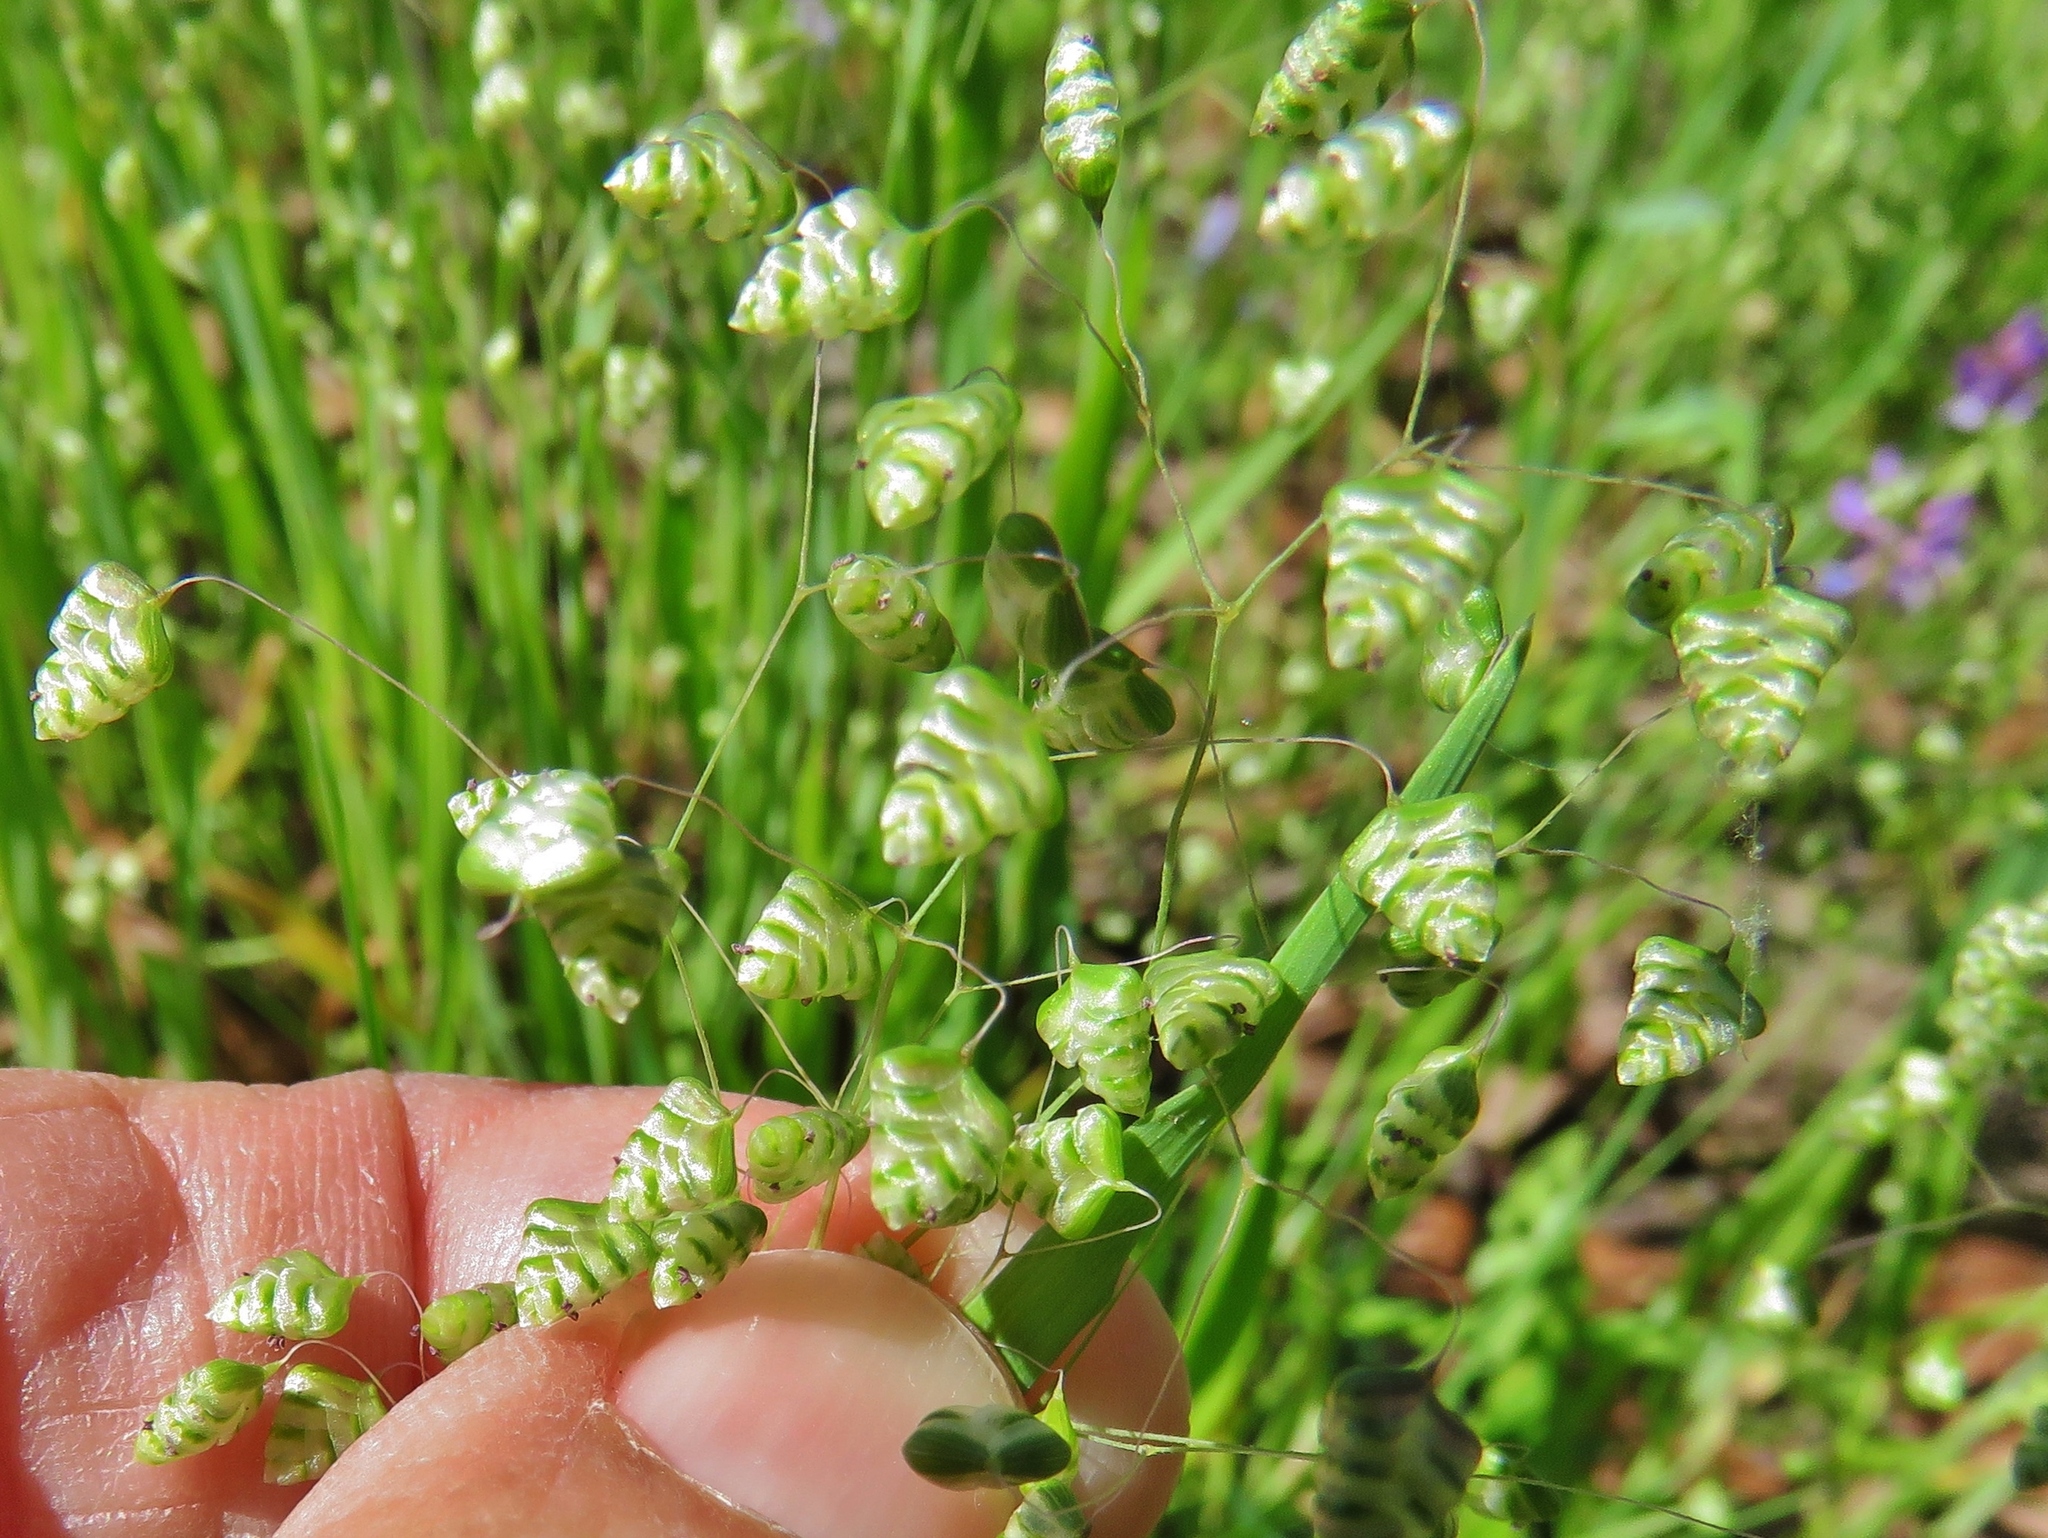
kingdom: Plantae
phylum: Tracheophyta
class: Liliopsida
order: Poales
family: Poaceae
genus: Briza
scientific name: Briza minor
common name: Lesser quaking-grass
